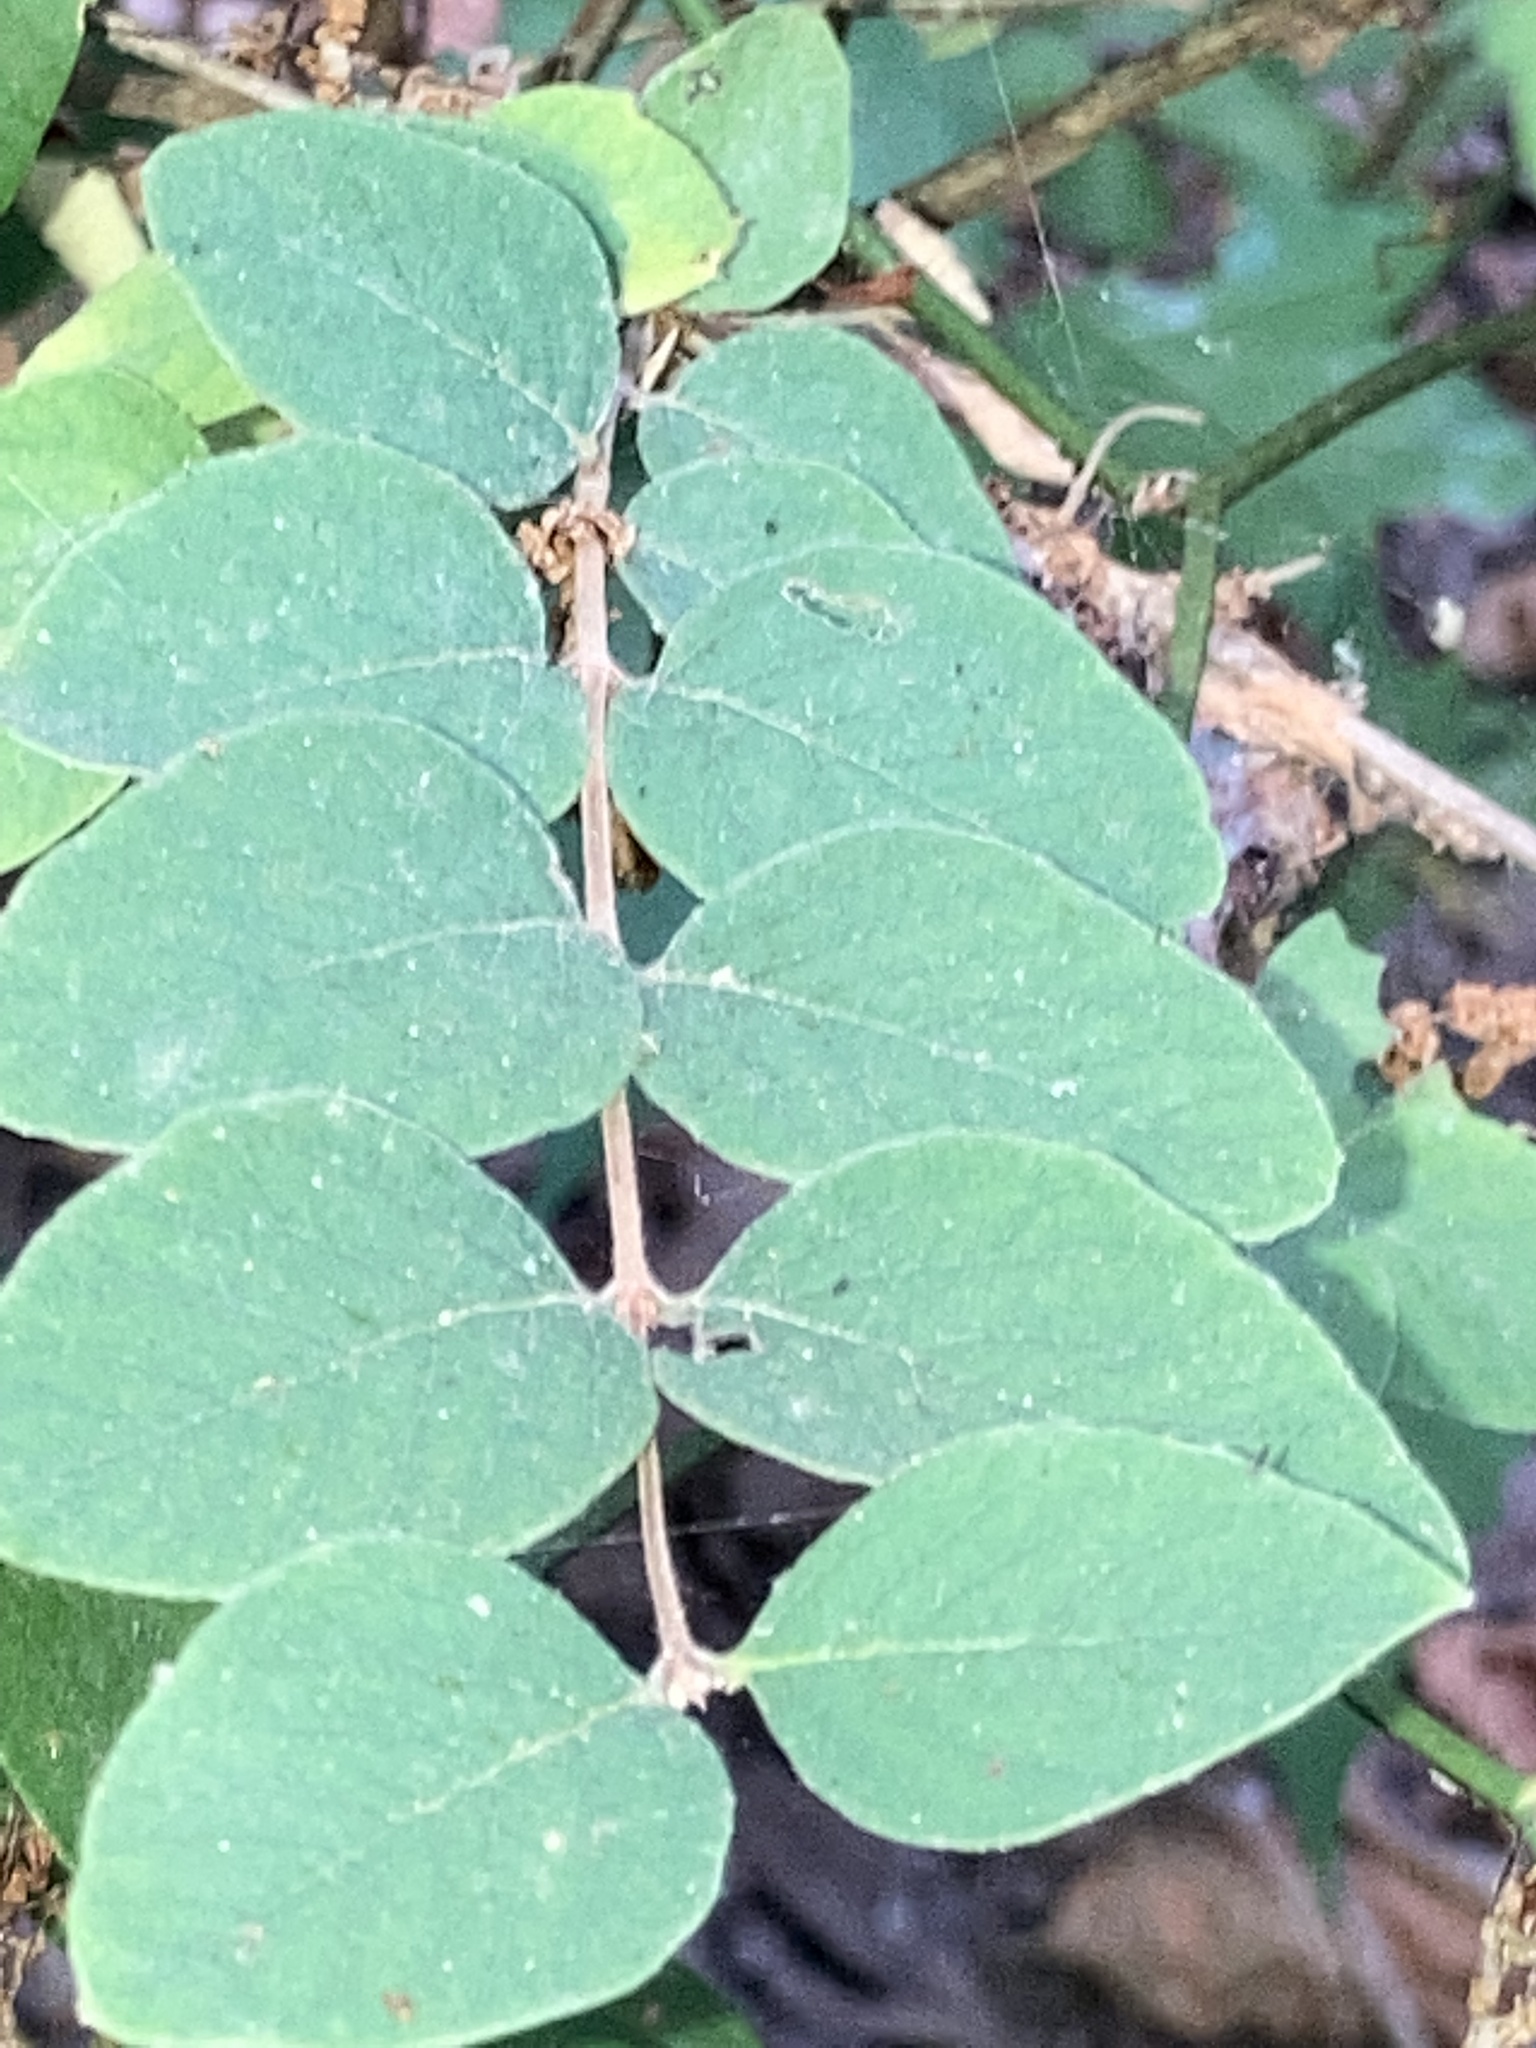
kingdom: Plantae
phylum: Tracheophyta
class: Magnoliopsida
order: Dipsacales
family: Caprifoliaceae
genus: Symphoricarpos
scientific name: Symphoricarpos orbiculatus
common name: Coralberry
